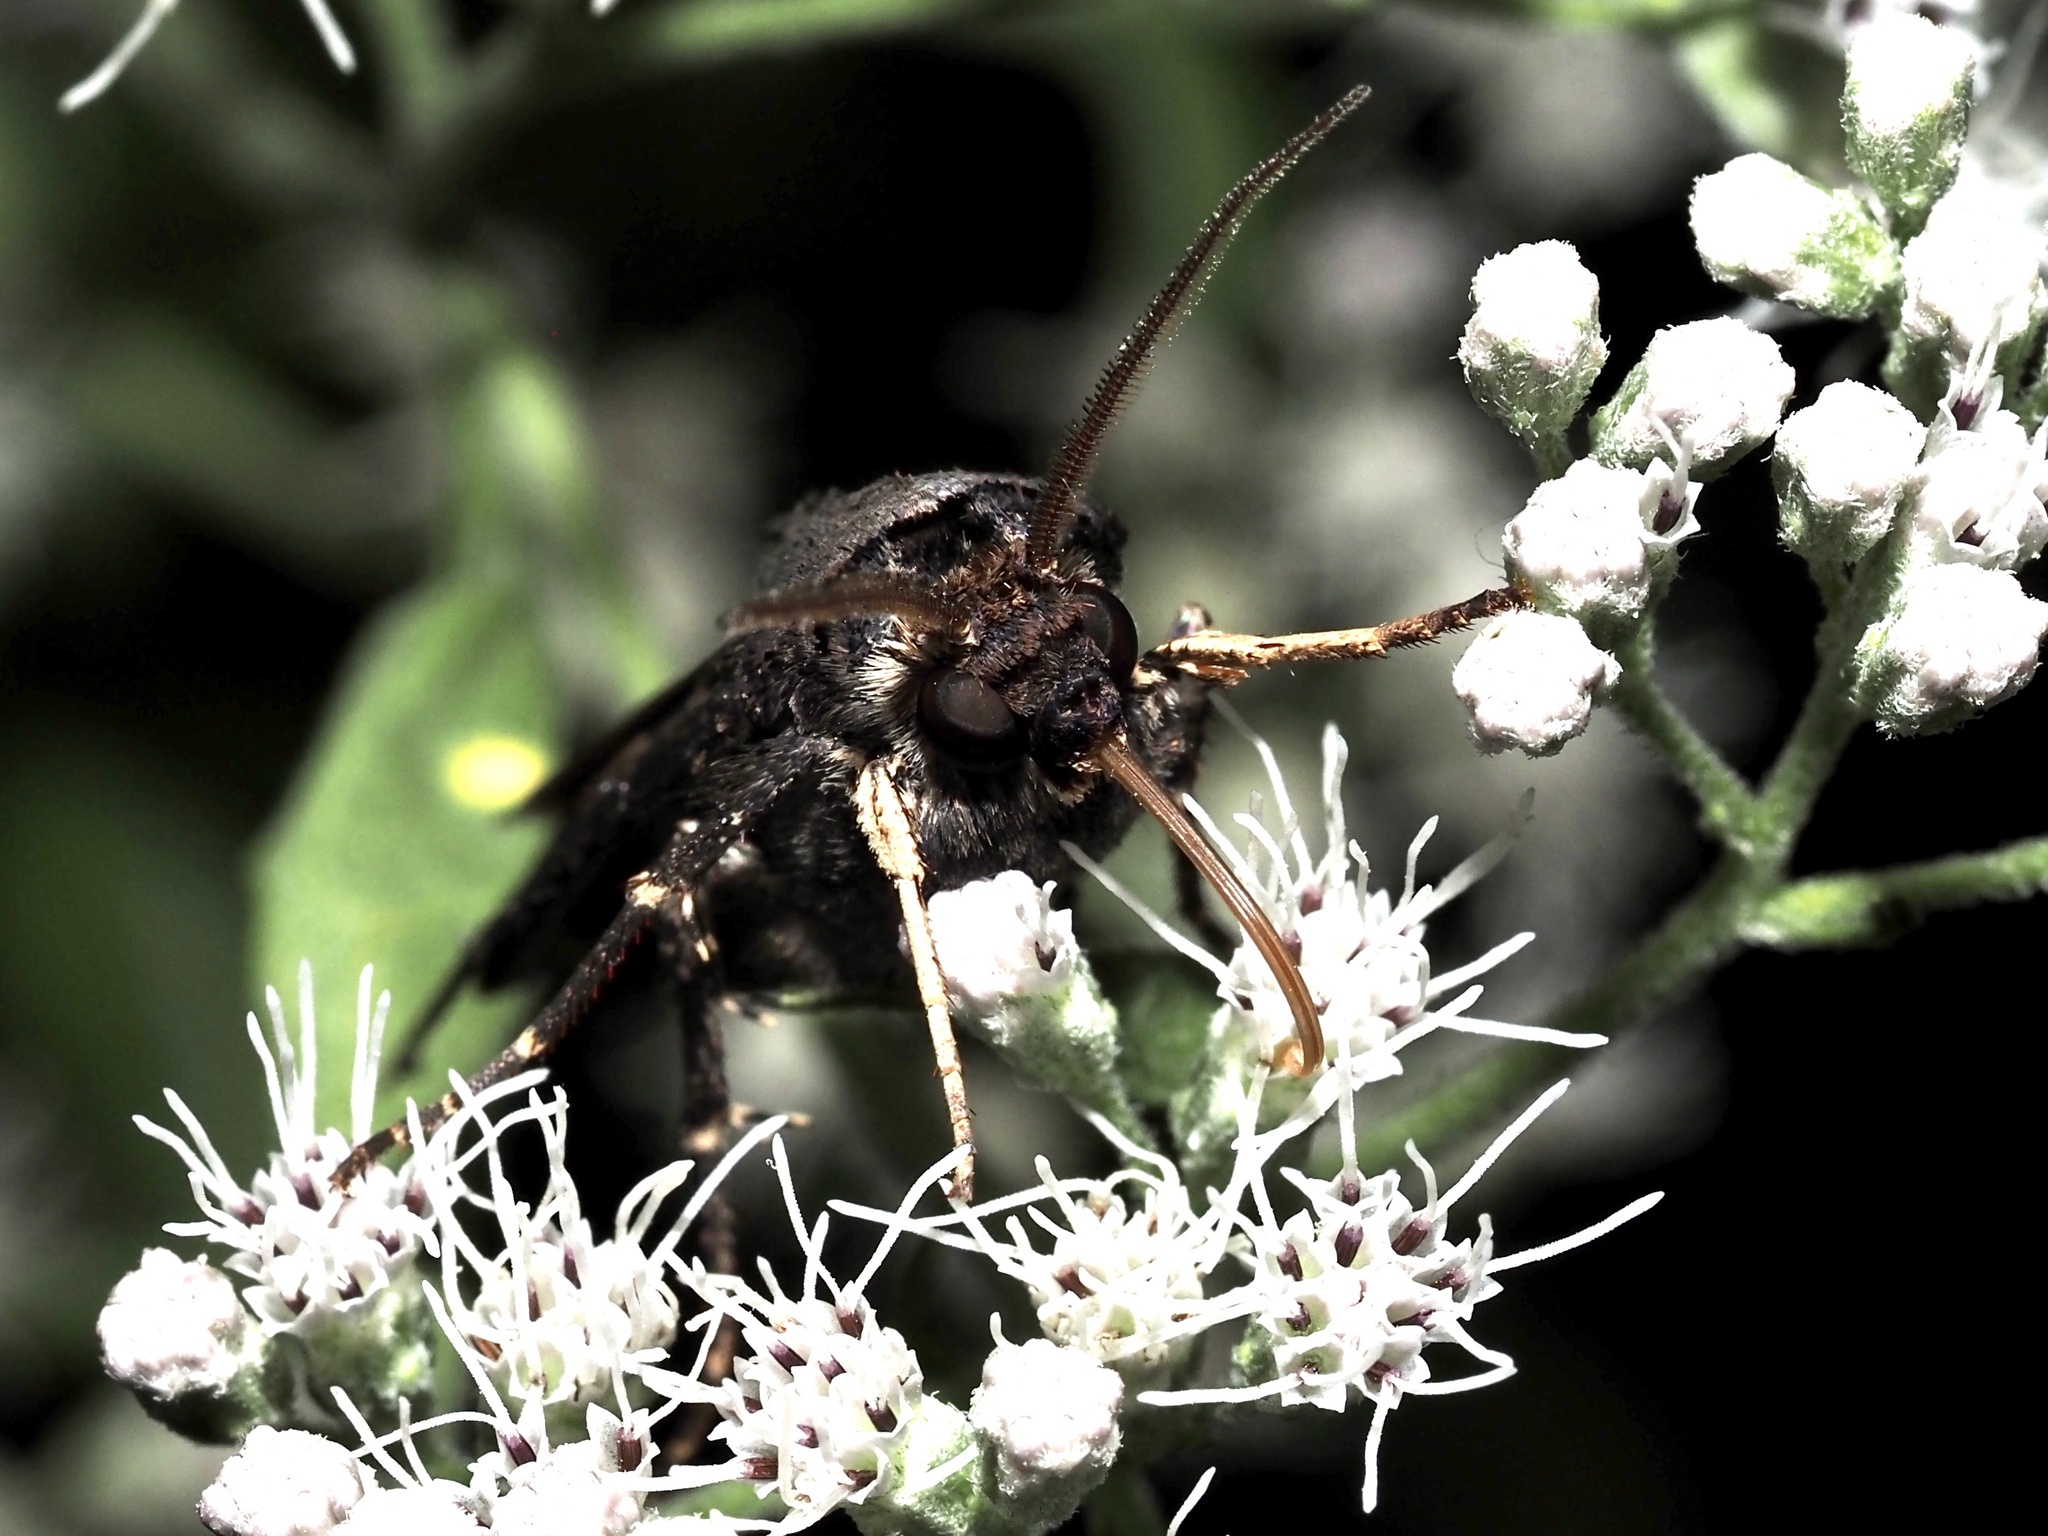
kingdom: Animalia
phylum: Arthropoda
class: Insecta
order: Lepidoptera
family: Noctuidae
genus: Agrotis
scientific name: Agrotis ipsilon
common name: Dark sword-grass
